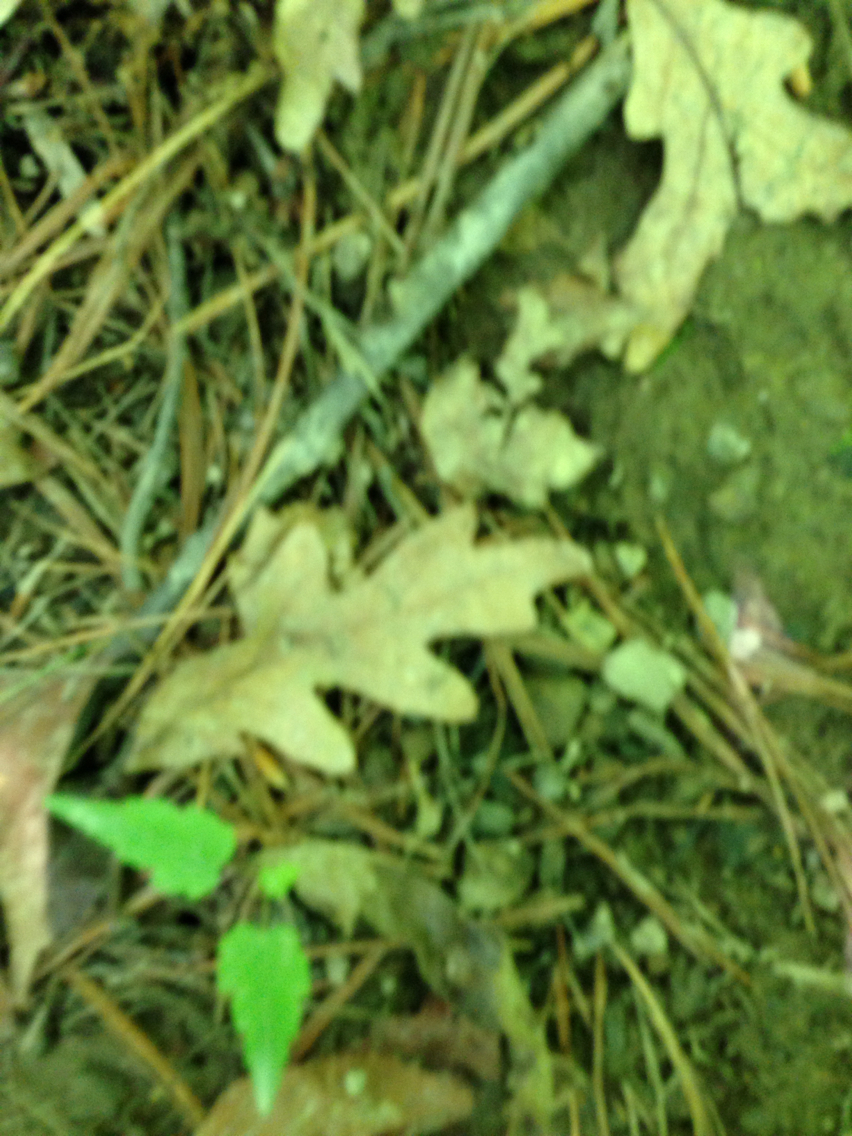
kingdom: Plantae
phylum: Tracheophyta
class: Magnoliopsida
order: Fagales
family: Fagaceae
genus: Quercus
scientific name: Quercus alba
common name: White oak
